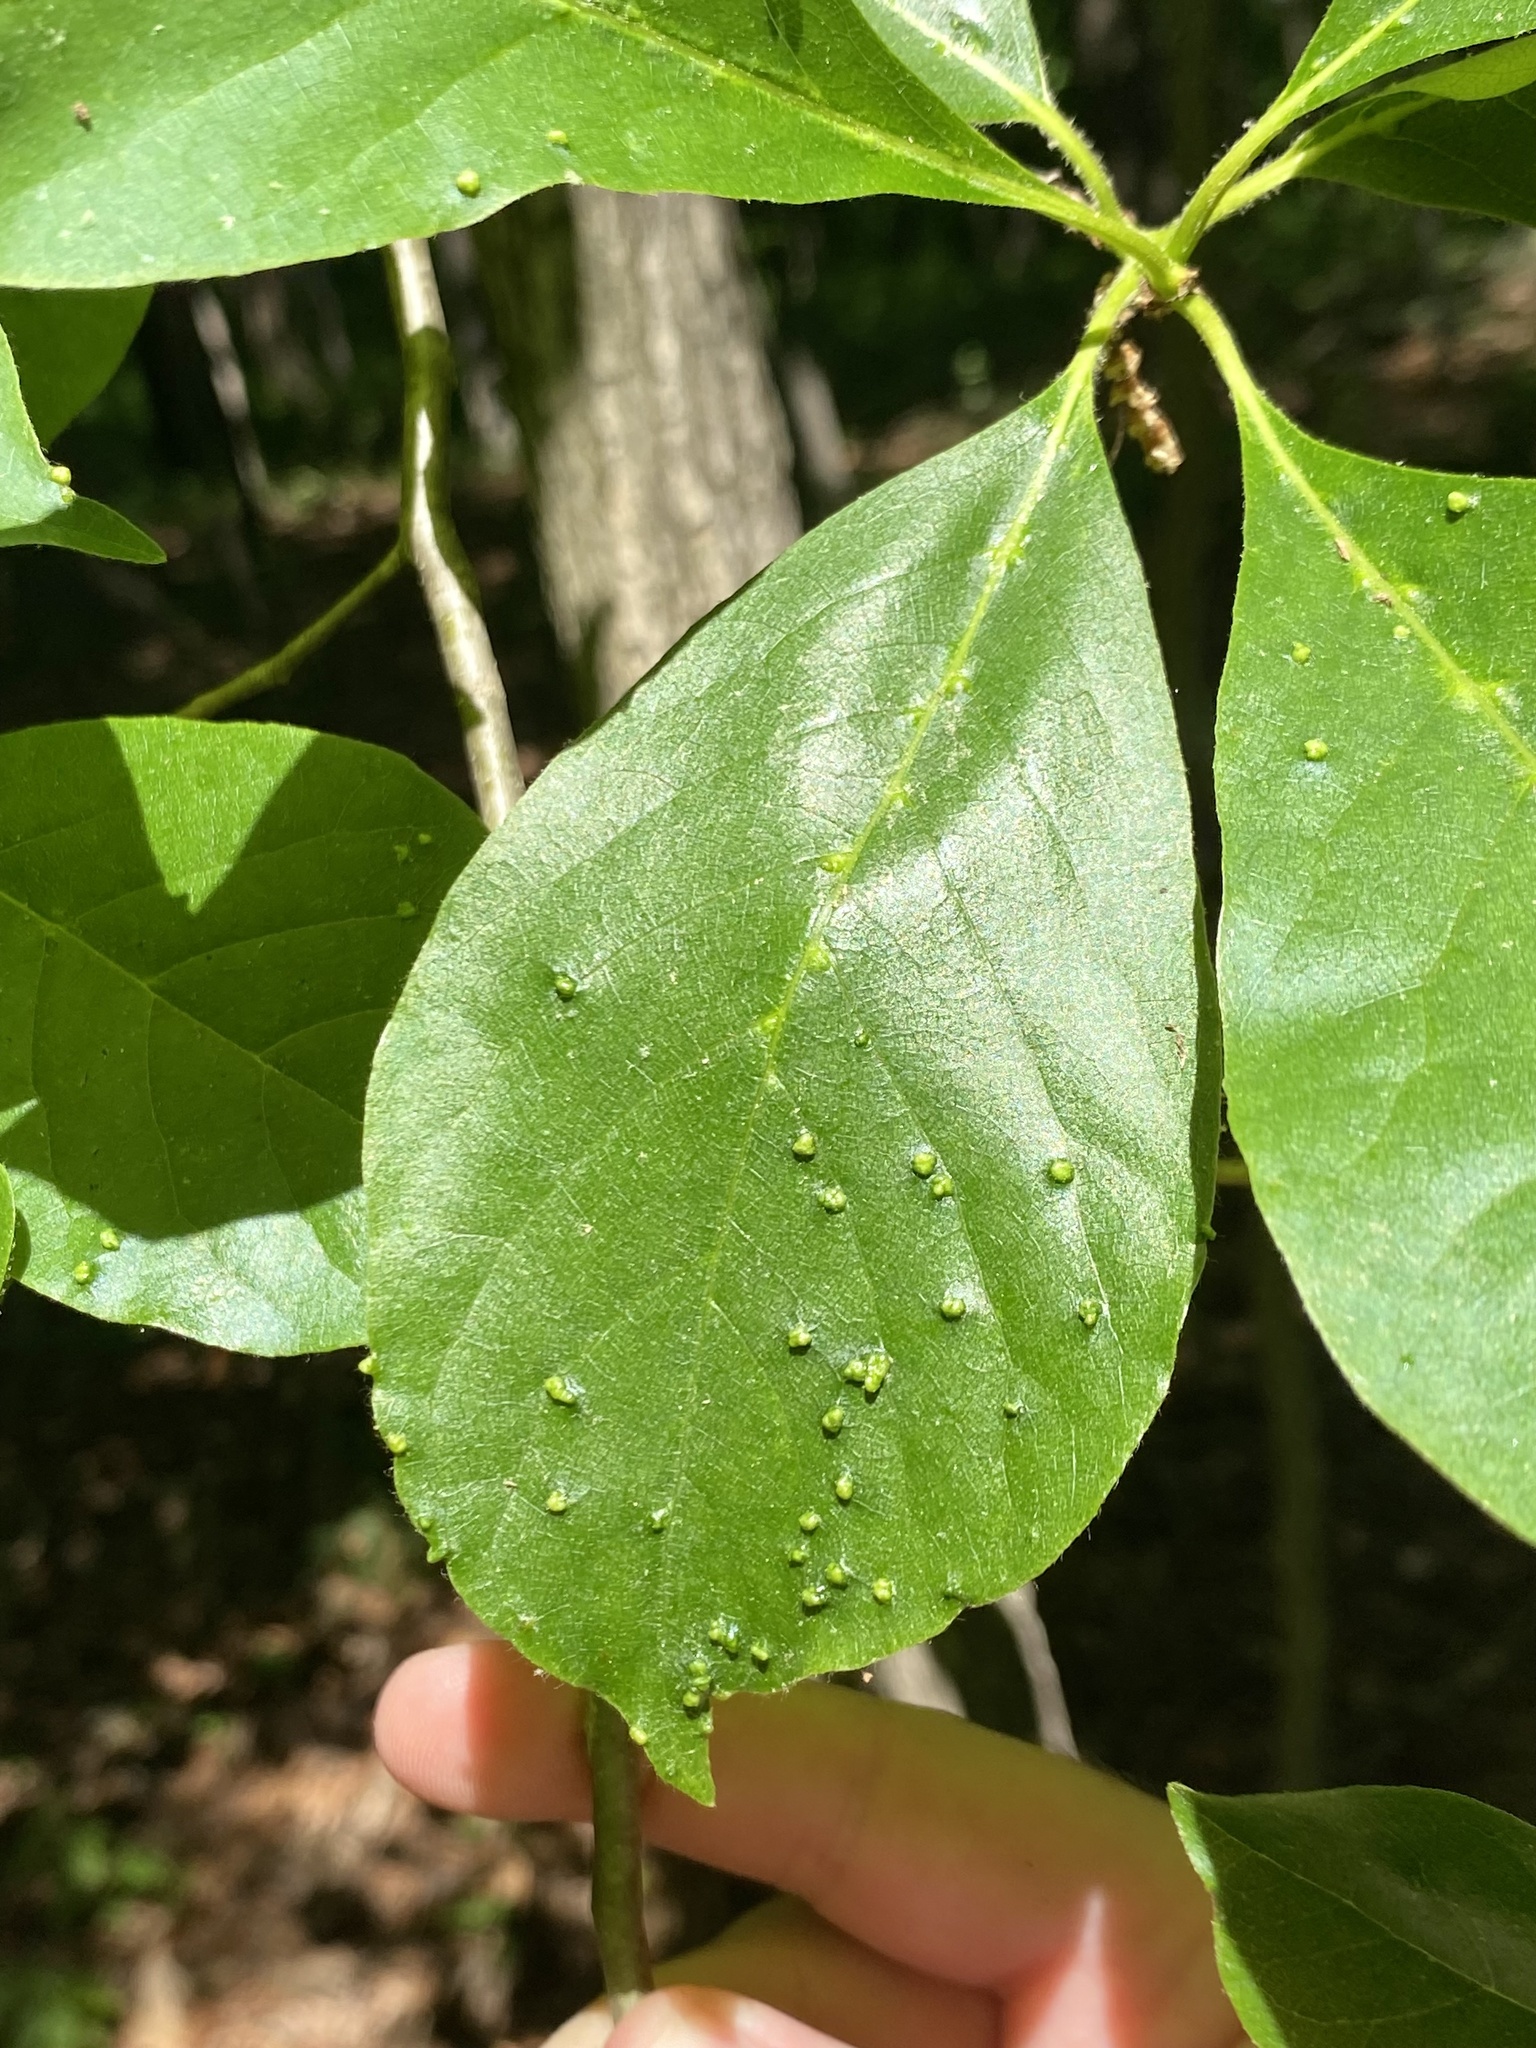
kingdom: Animalia
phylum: Arthropoda
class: Arachnida
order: Trombidiformes
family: Eriophyidae
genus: Aceria
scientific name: Aceria
